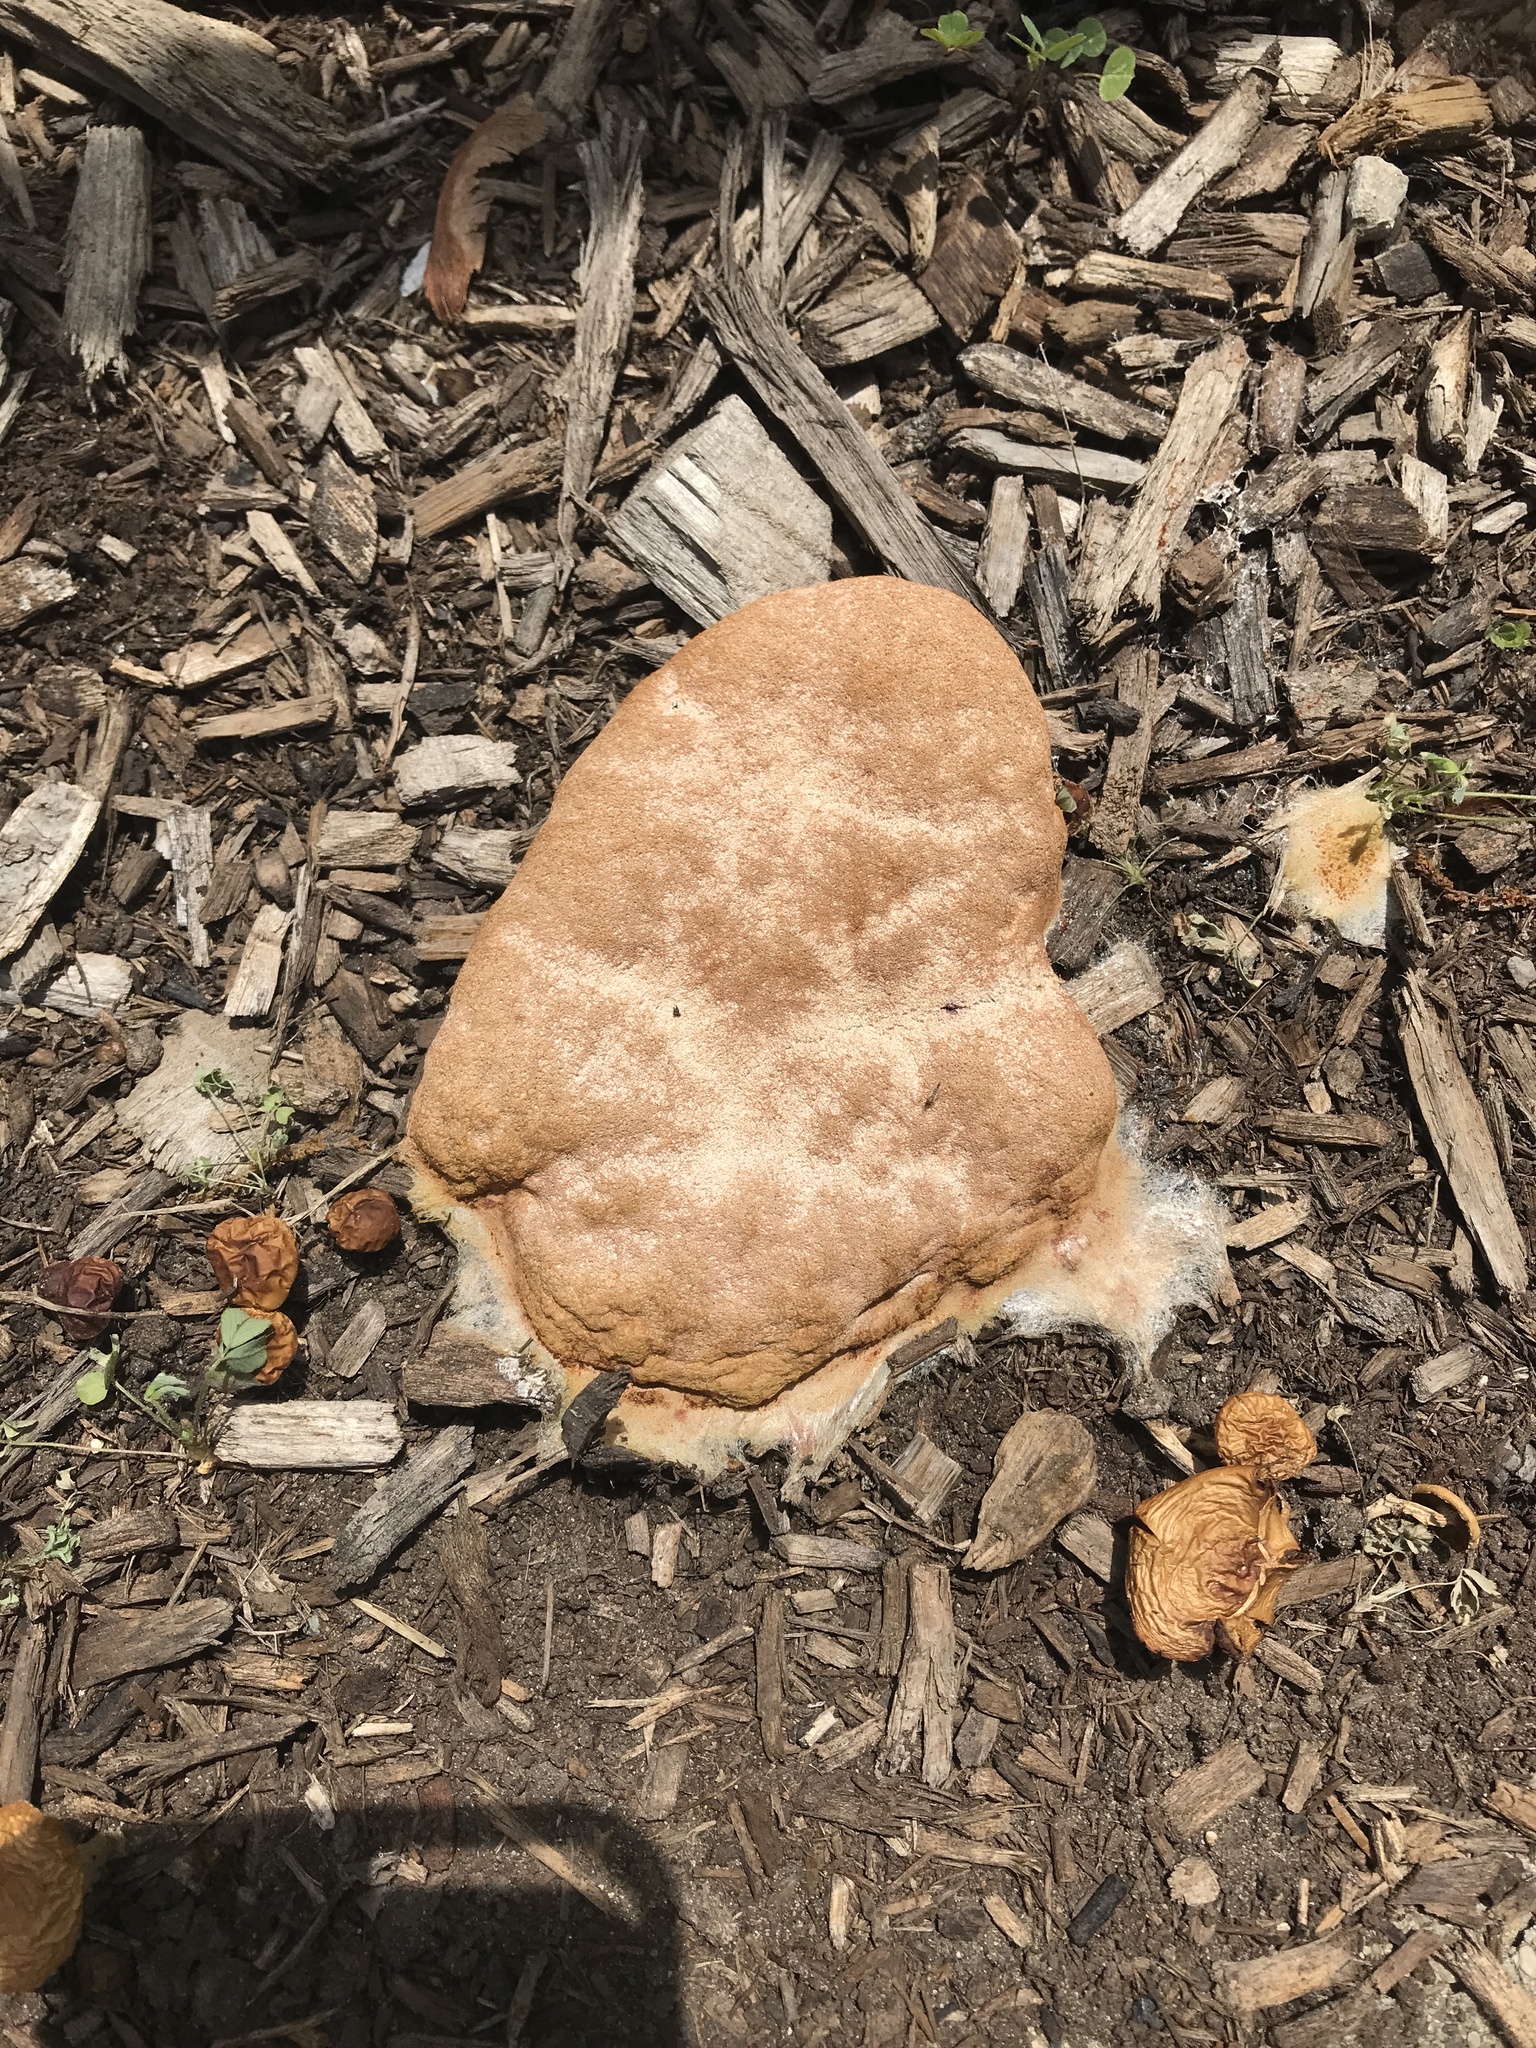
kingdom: Protozoa
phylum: Mycetozoa
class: Myxomycetes
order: Physarales
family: Physaraceae
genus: Fuligo
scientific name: Fuligo septica
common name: Dog vomit slime mold
